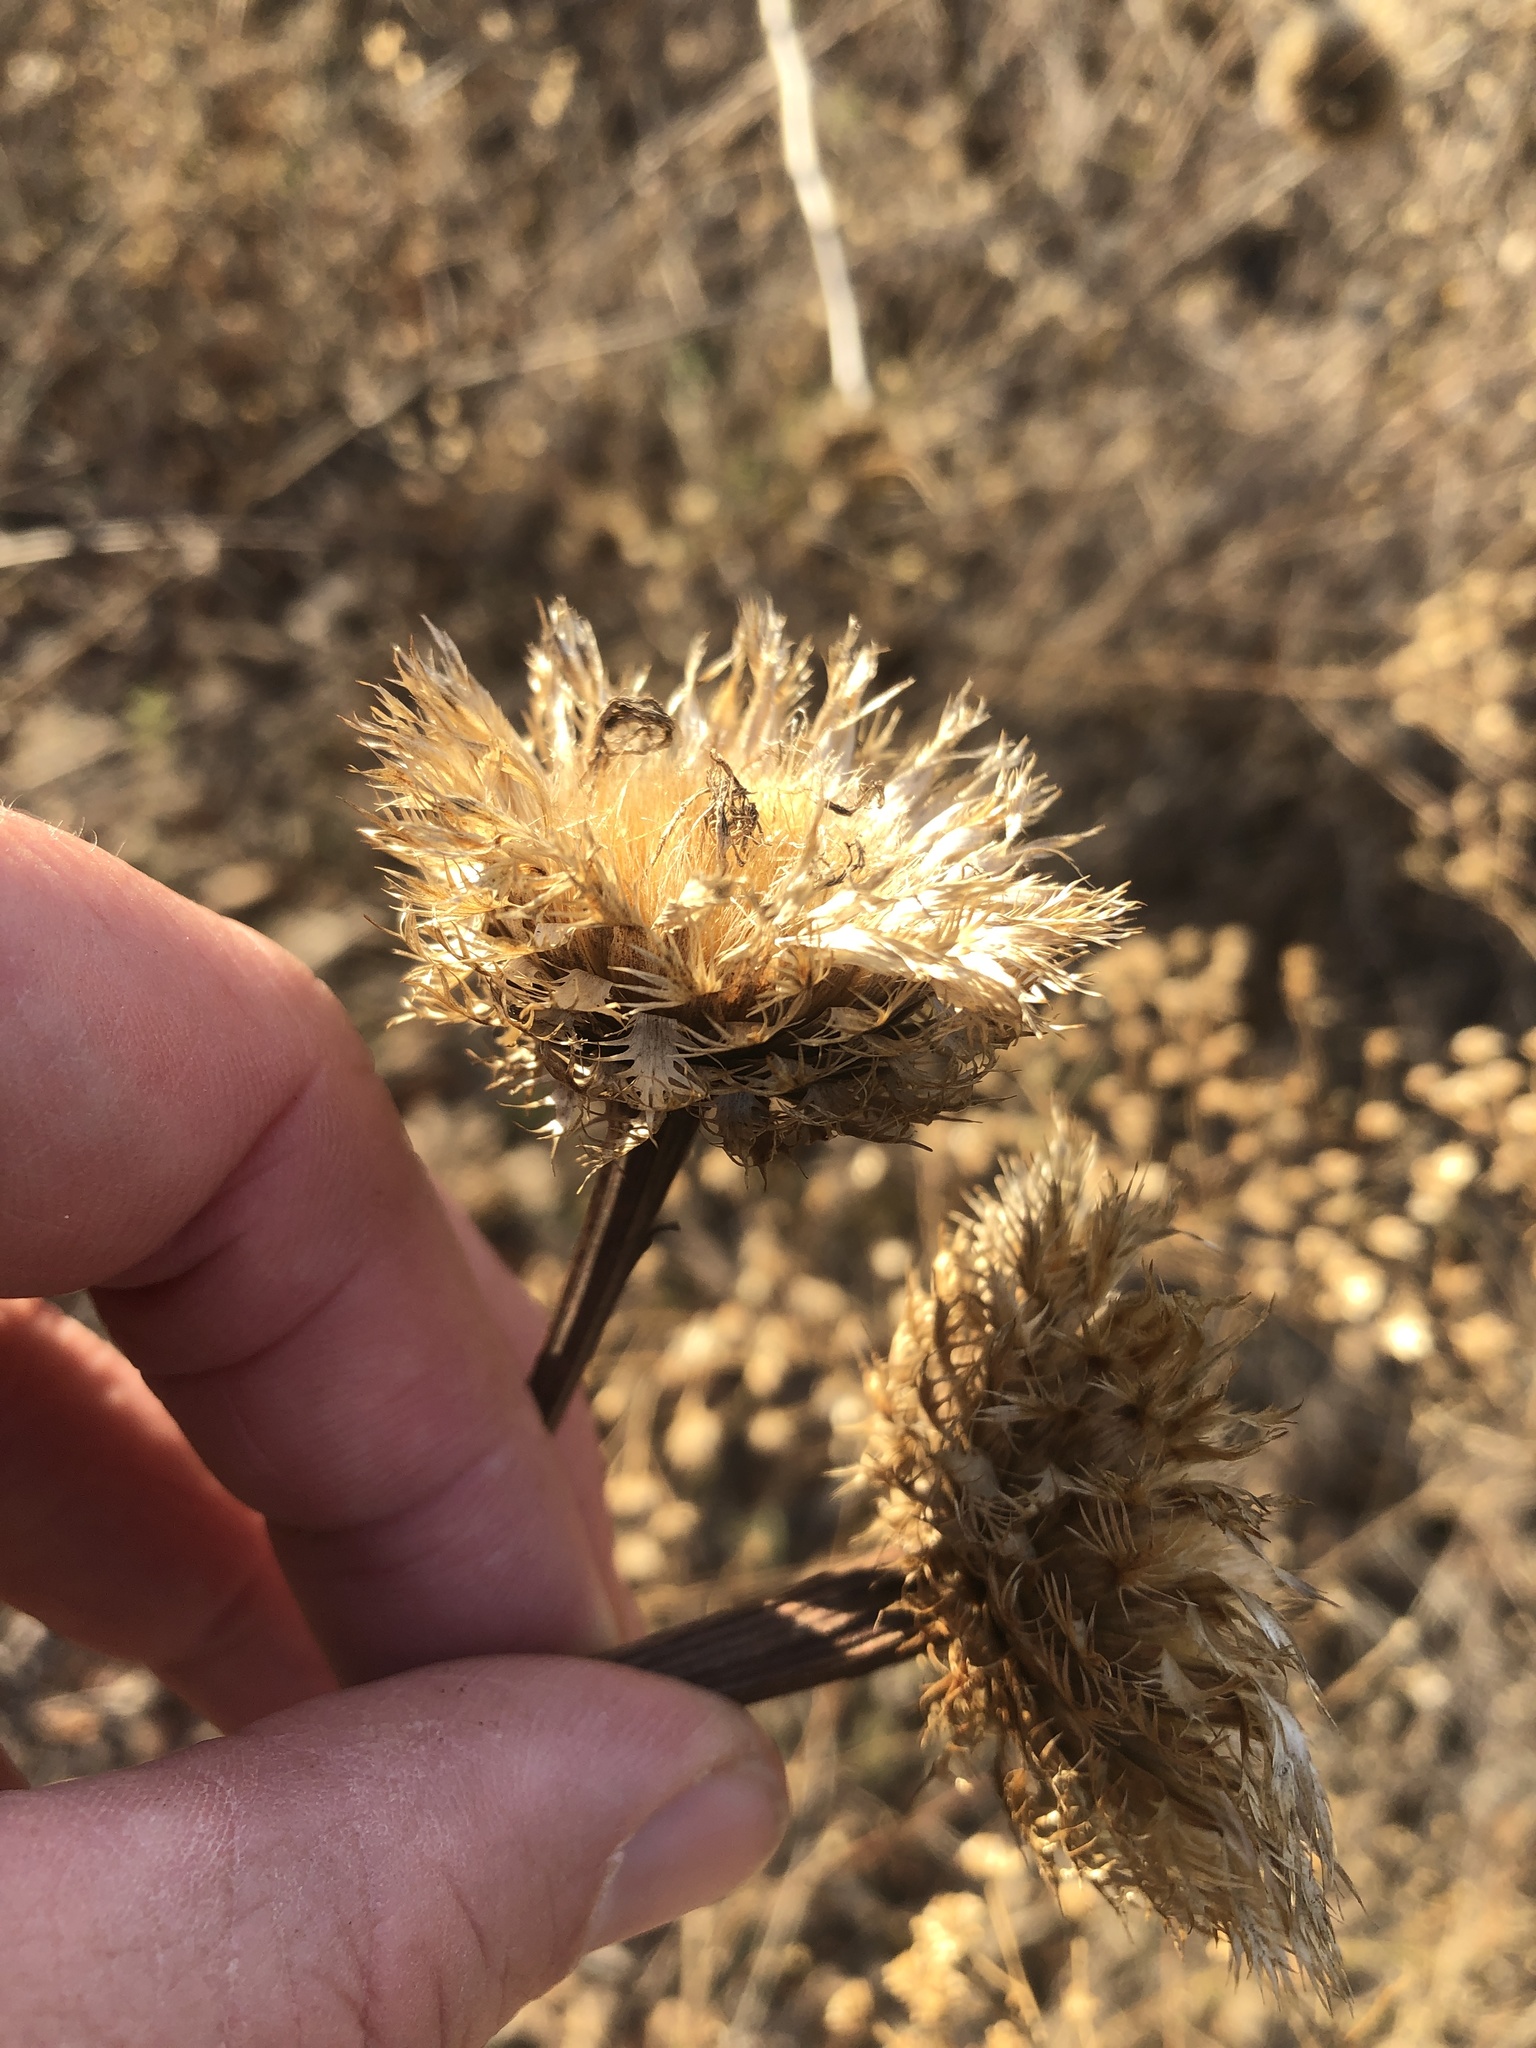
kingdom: Plantae
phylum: Tracheophyta
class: Magnoliopsida
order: Asterales
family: Asteraceae
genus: Plectocephalus
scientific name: Plectocephalus americanus
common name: American basket-flower
